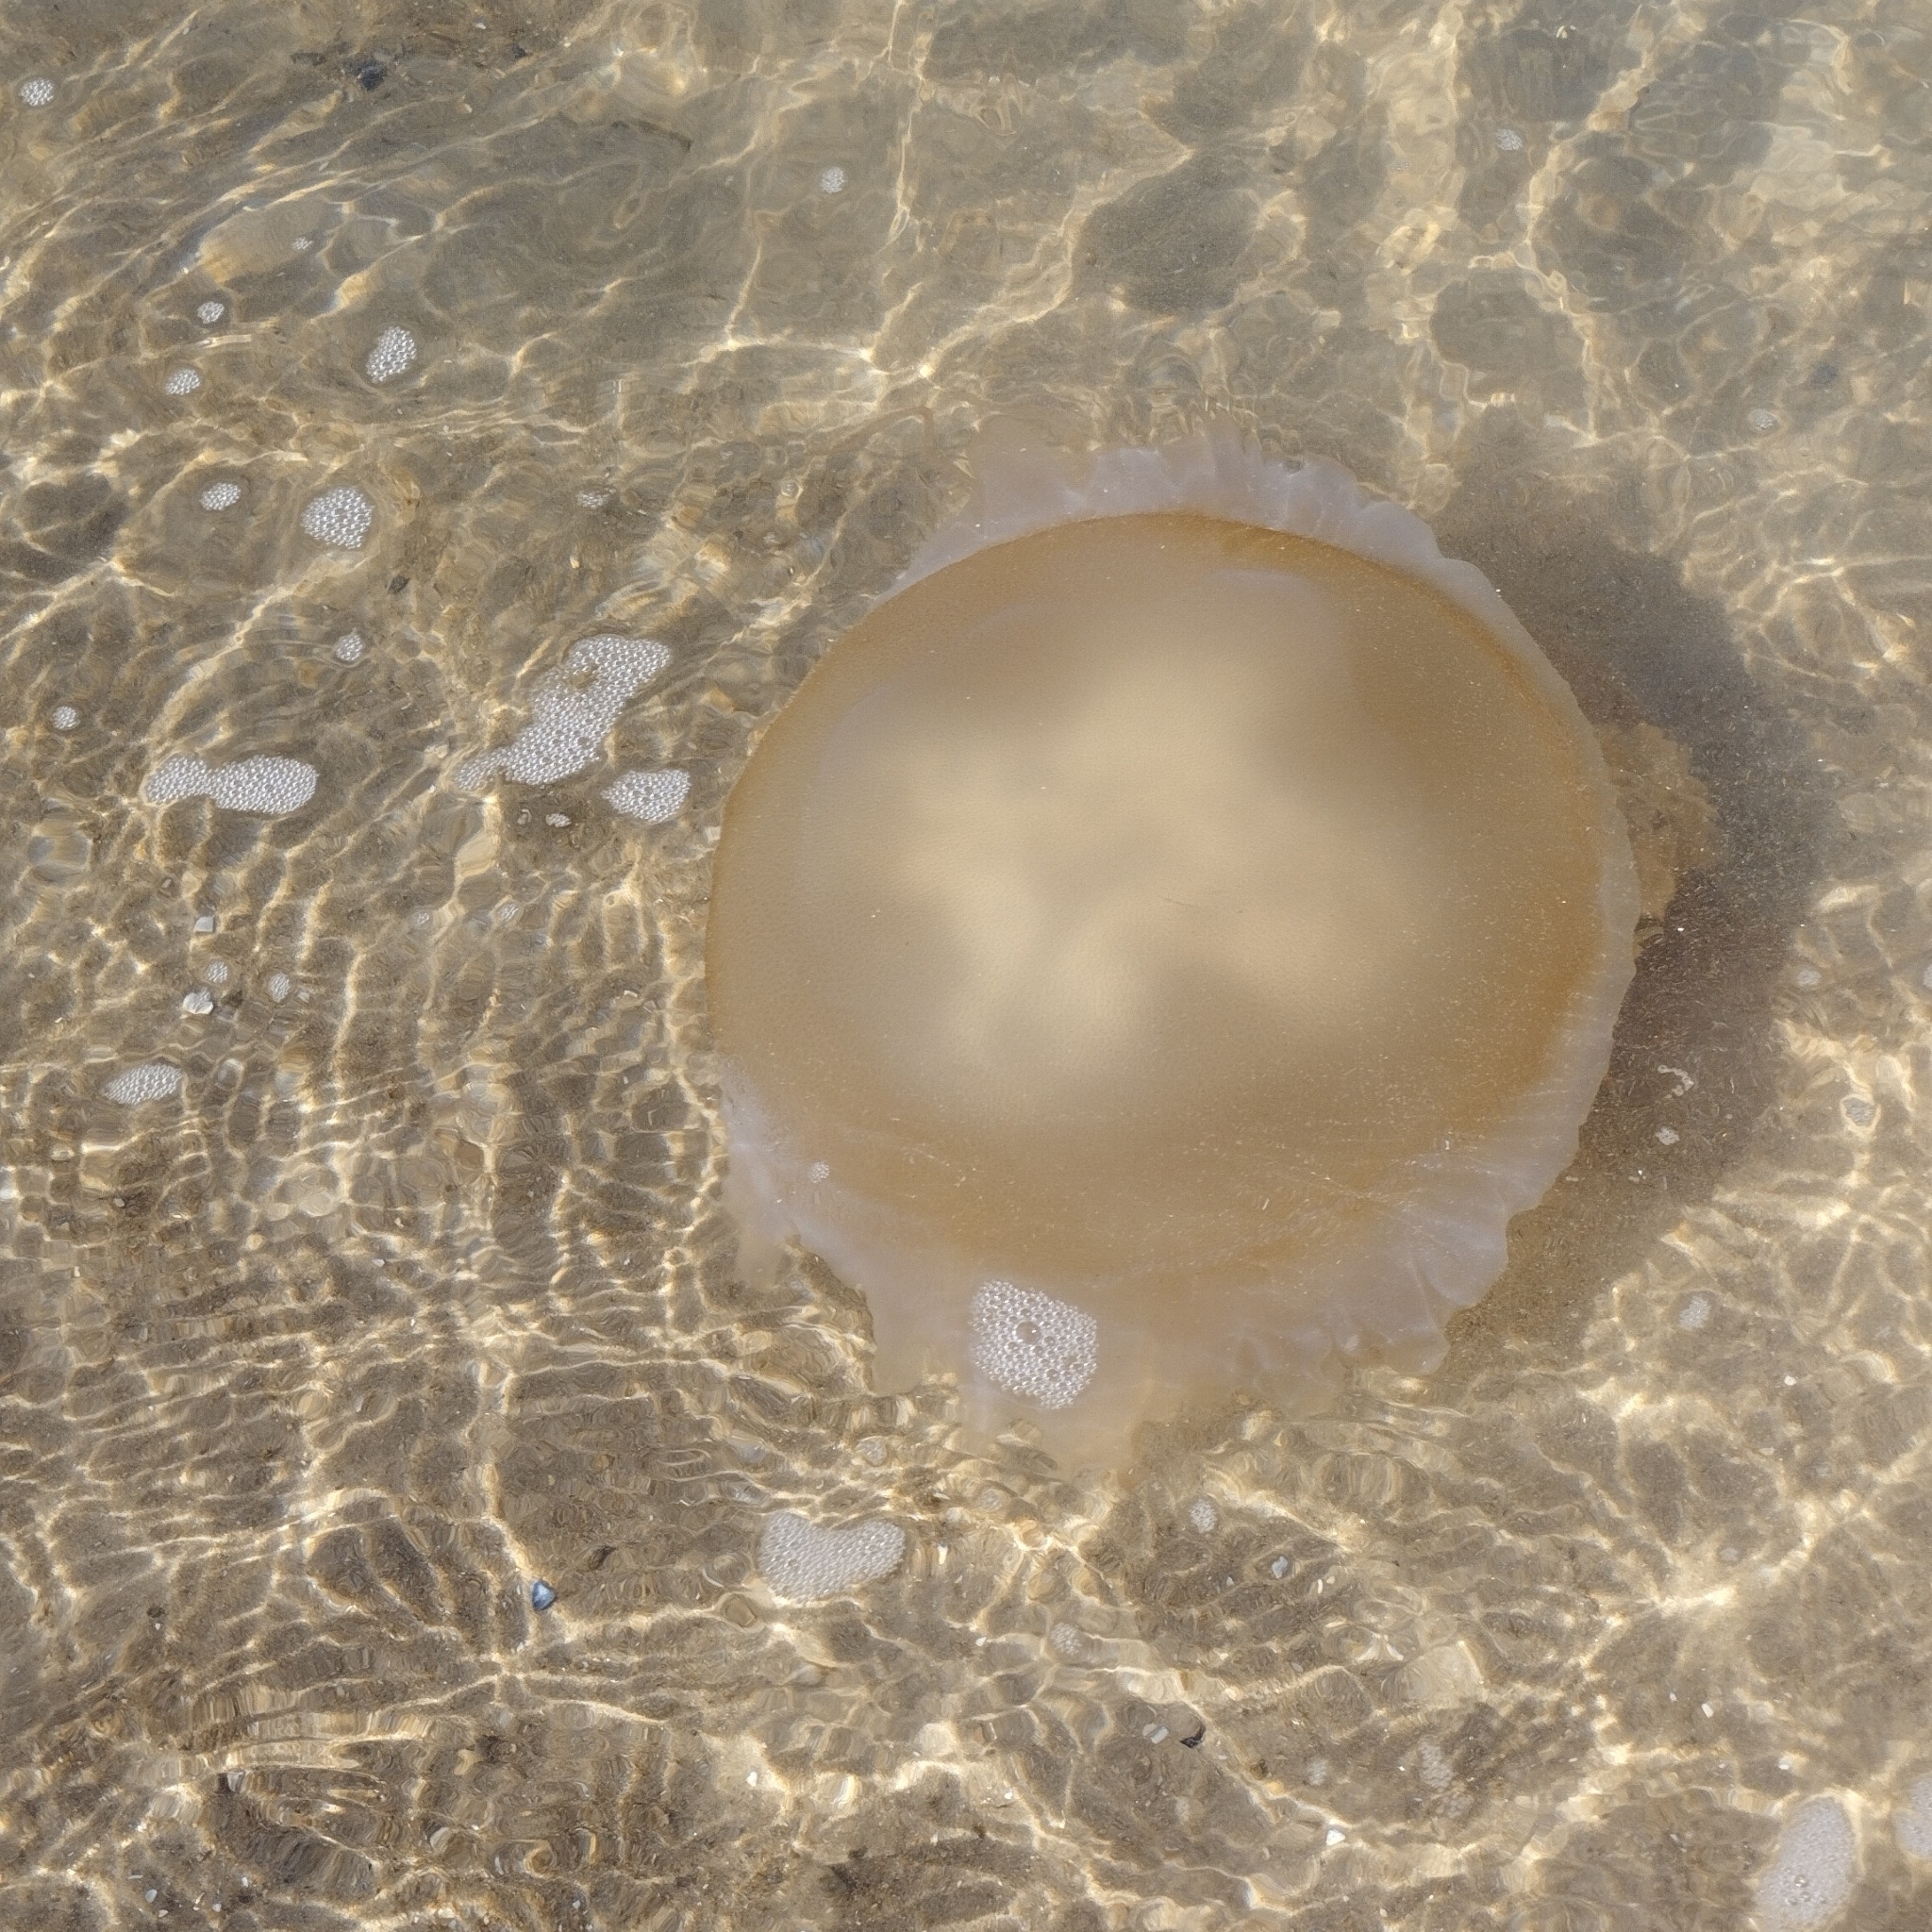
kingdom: Animalia
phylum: Cnidaria
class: Scyphozoa
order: Rhizostomeae
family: Lychnorhizidae
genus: Lychnorhiza
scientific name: Lychnorhiza lucerna
